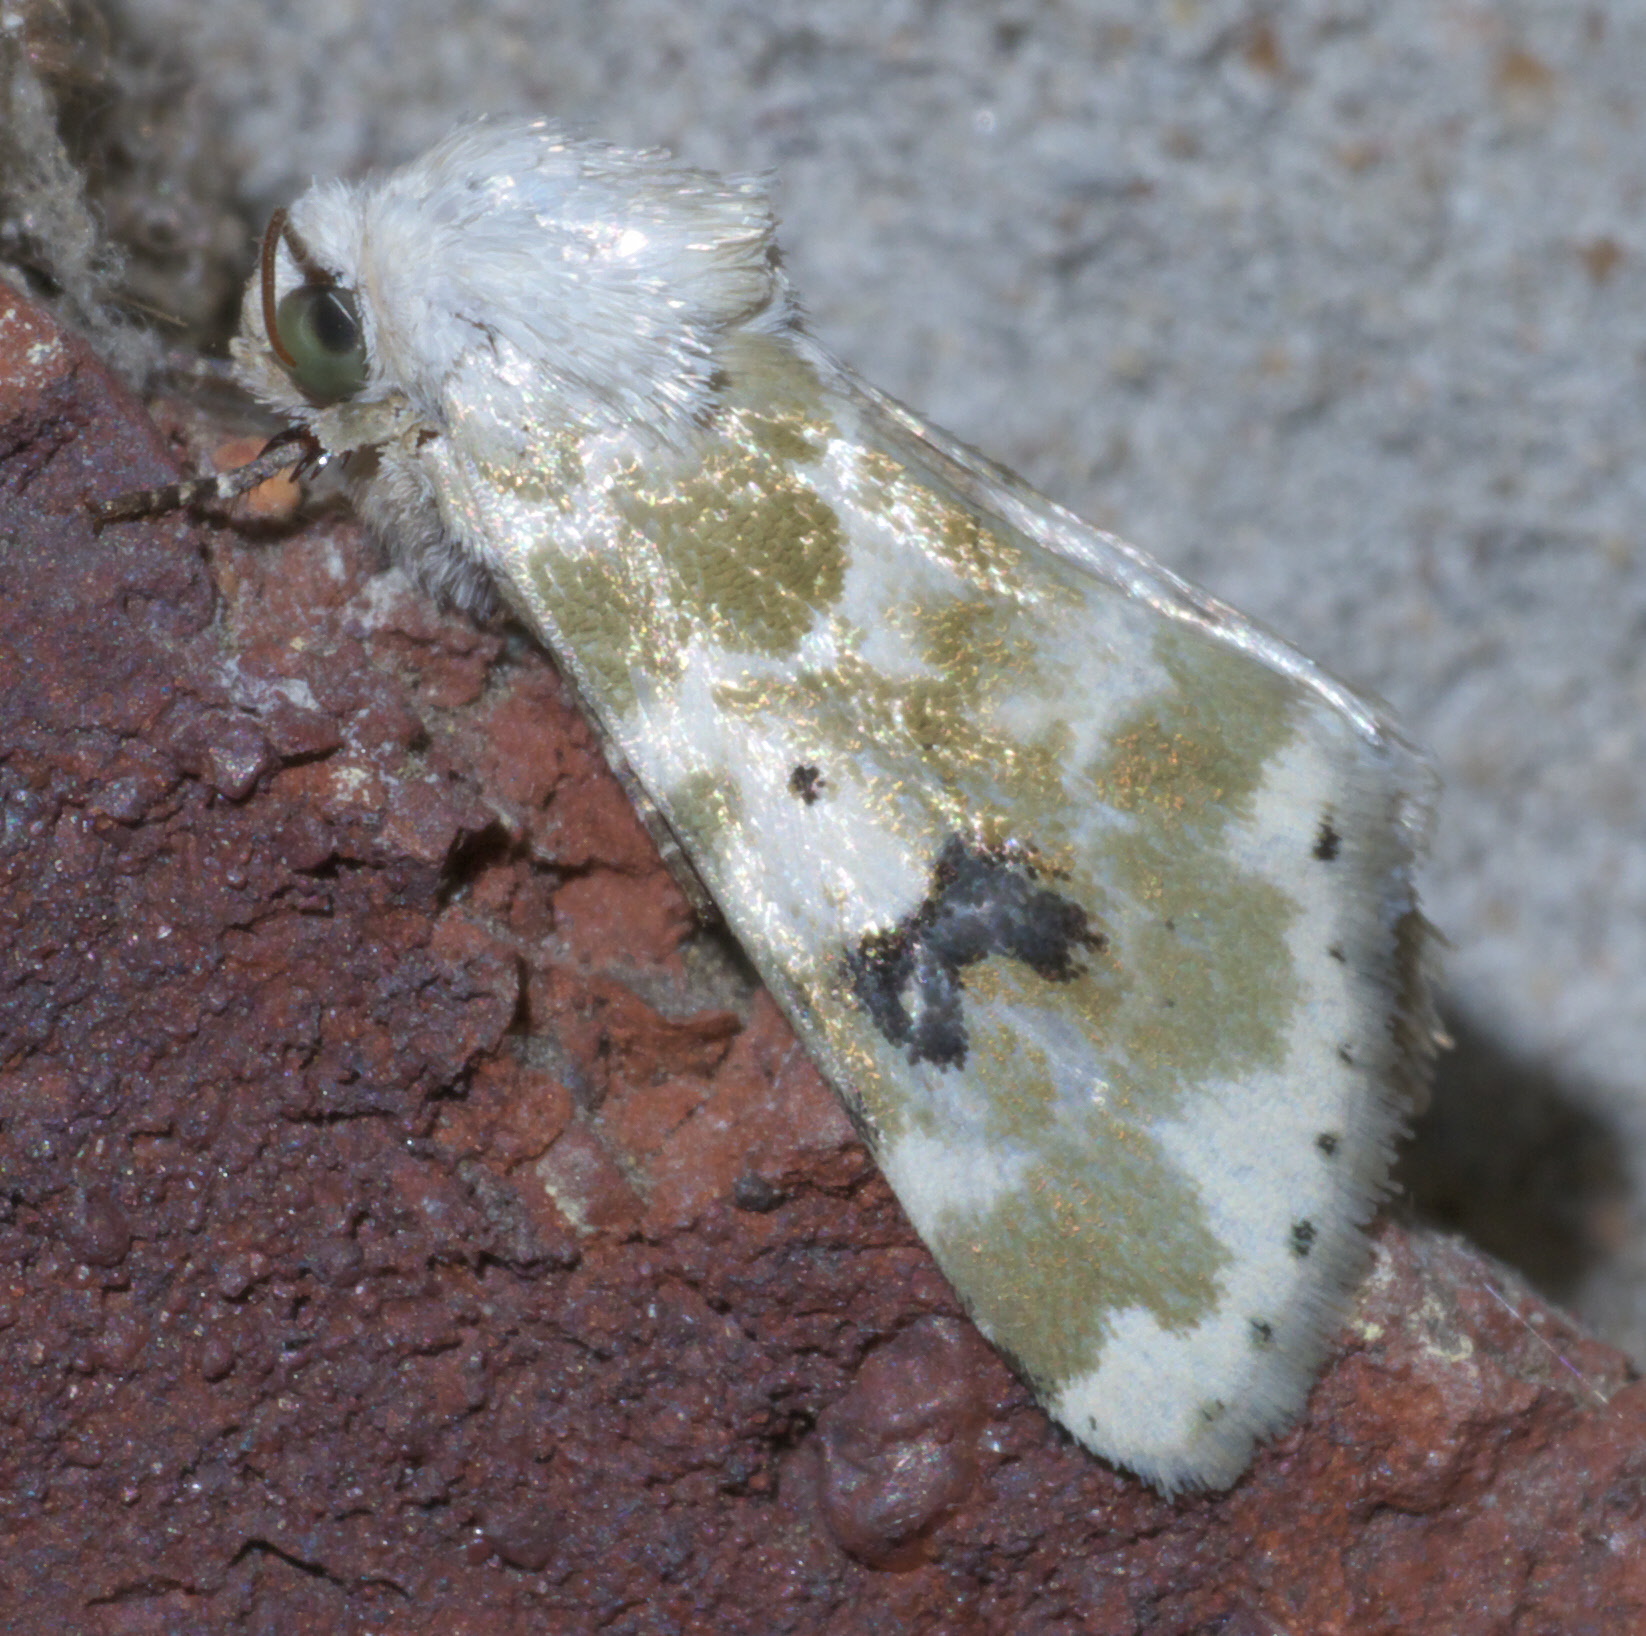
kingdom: Animalia
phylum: Arthropoda
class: Insecta
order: Lepidoptera
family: Noctuidae
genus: Schinia
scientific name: Schinia nundina
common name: Goldenrod flower moth
